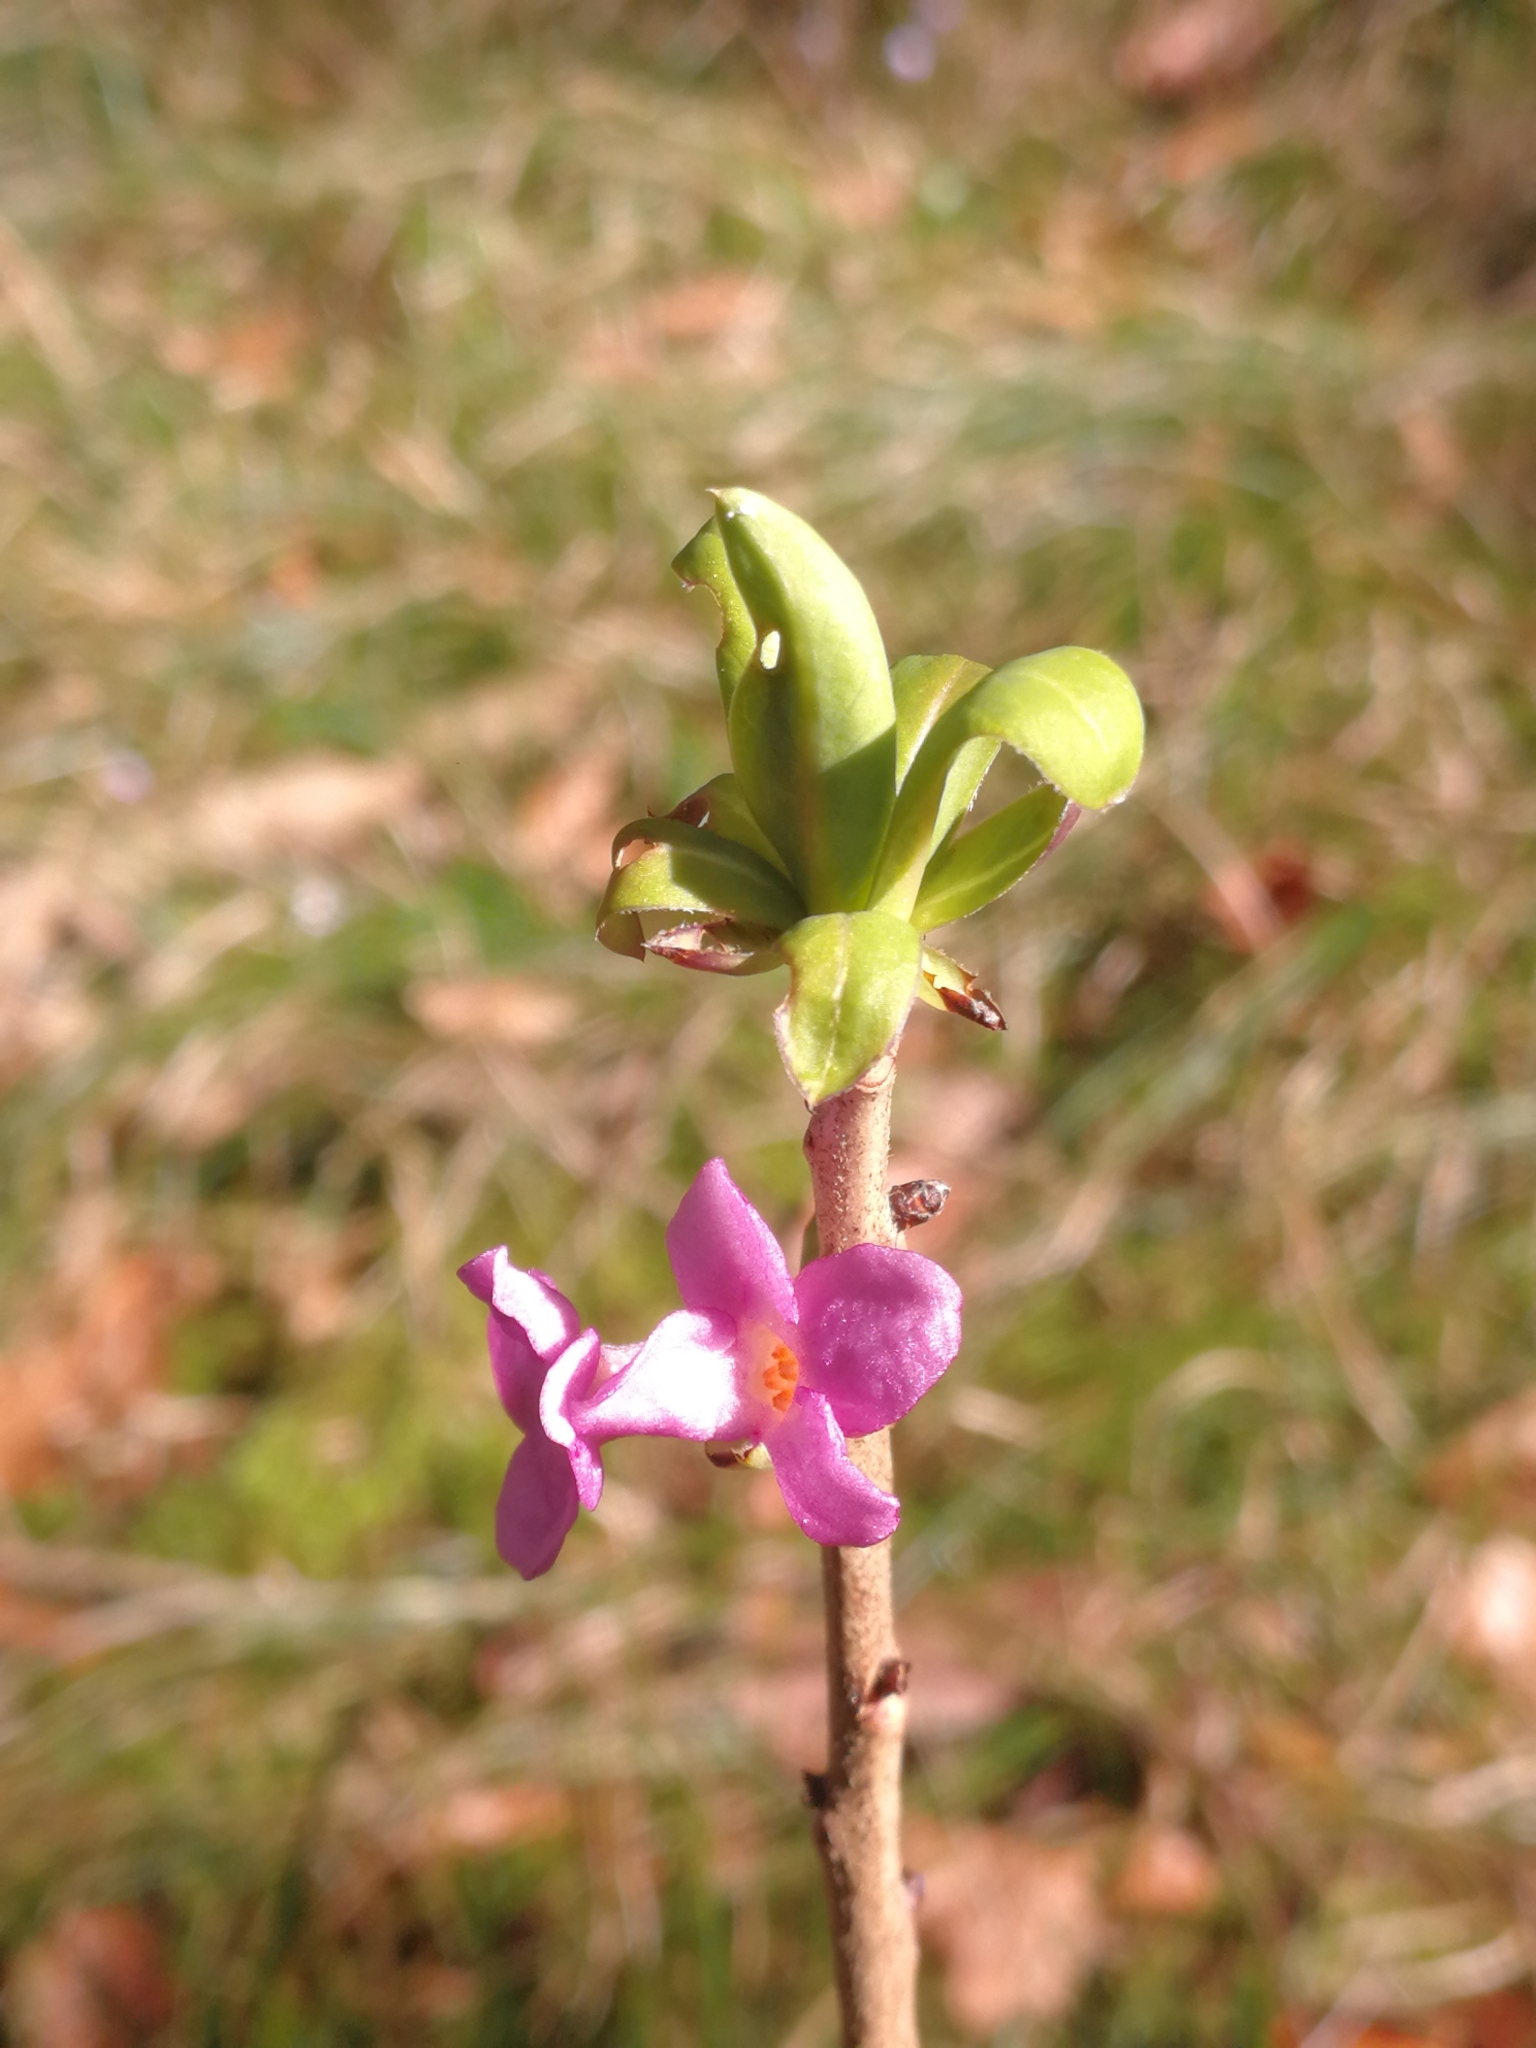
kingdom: Plantae
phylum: Tracheophyta
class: Magnoliopsida
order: Malvales
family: Thymelaeaceae
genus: Daphne
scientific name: Daphne mezereum
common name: Mezereon
